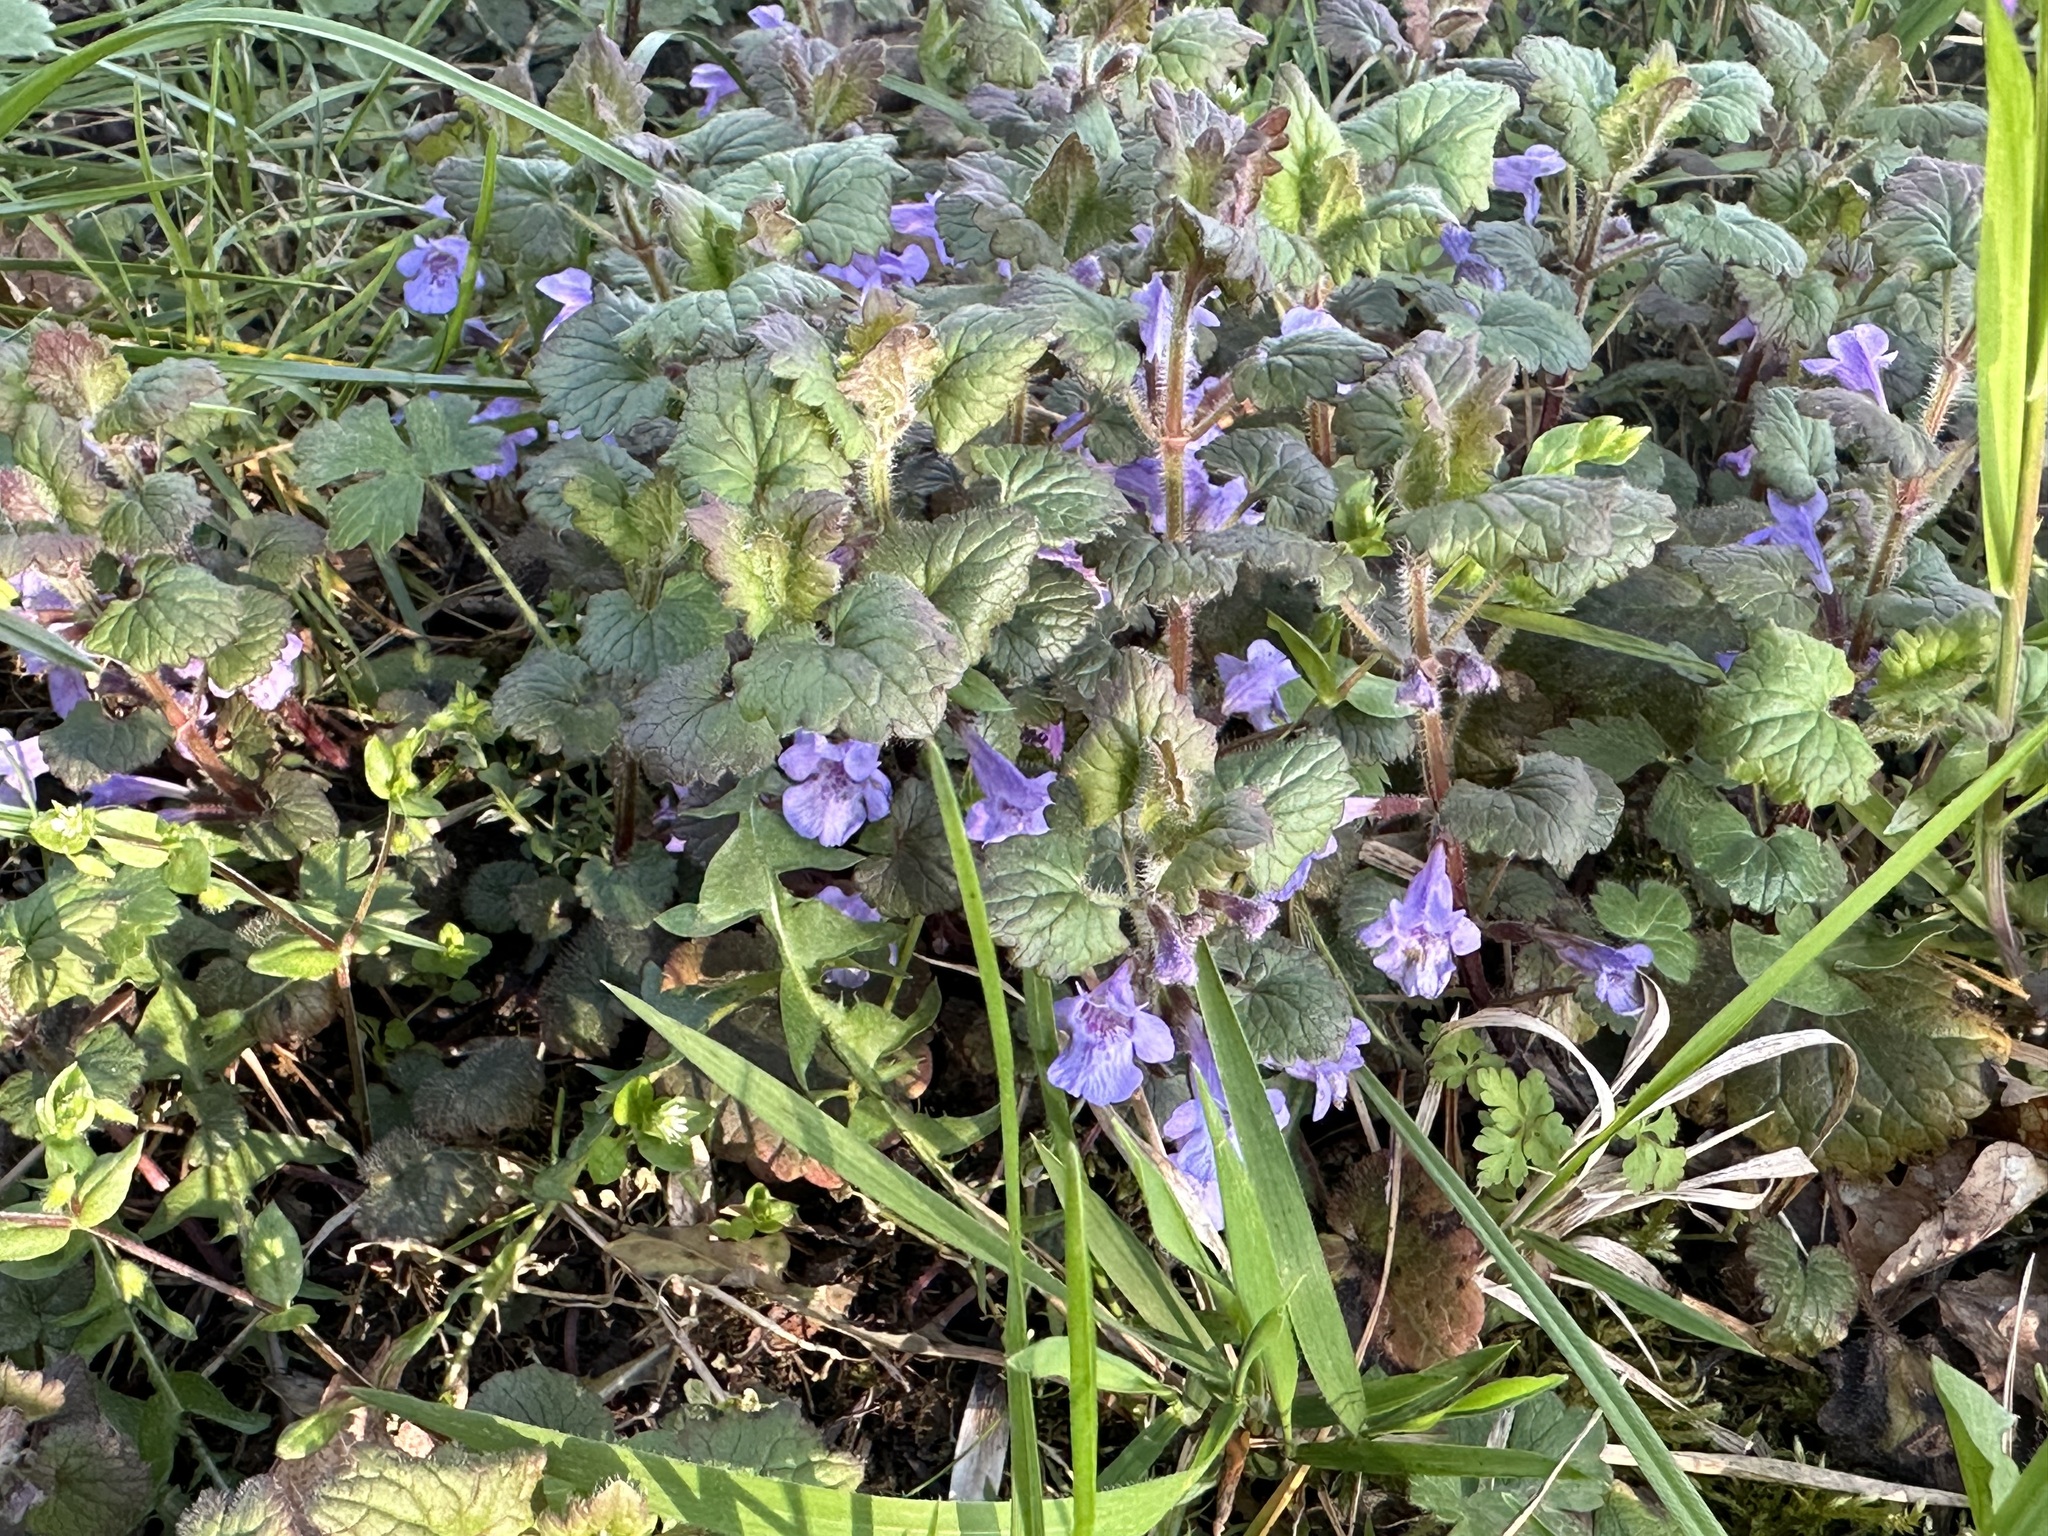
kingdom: Plantae
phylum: Tracheophyta
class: Magnoliopsida
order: Lamiales
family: Lamiaceae
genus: Glechoma
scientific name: Glechoma hederacea
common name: Ground ivy
